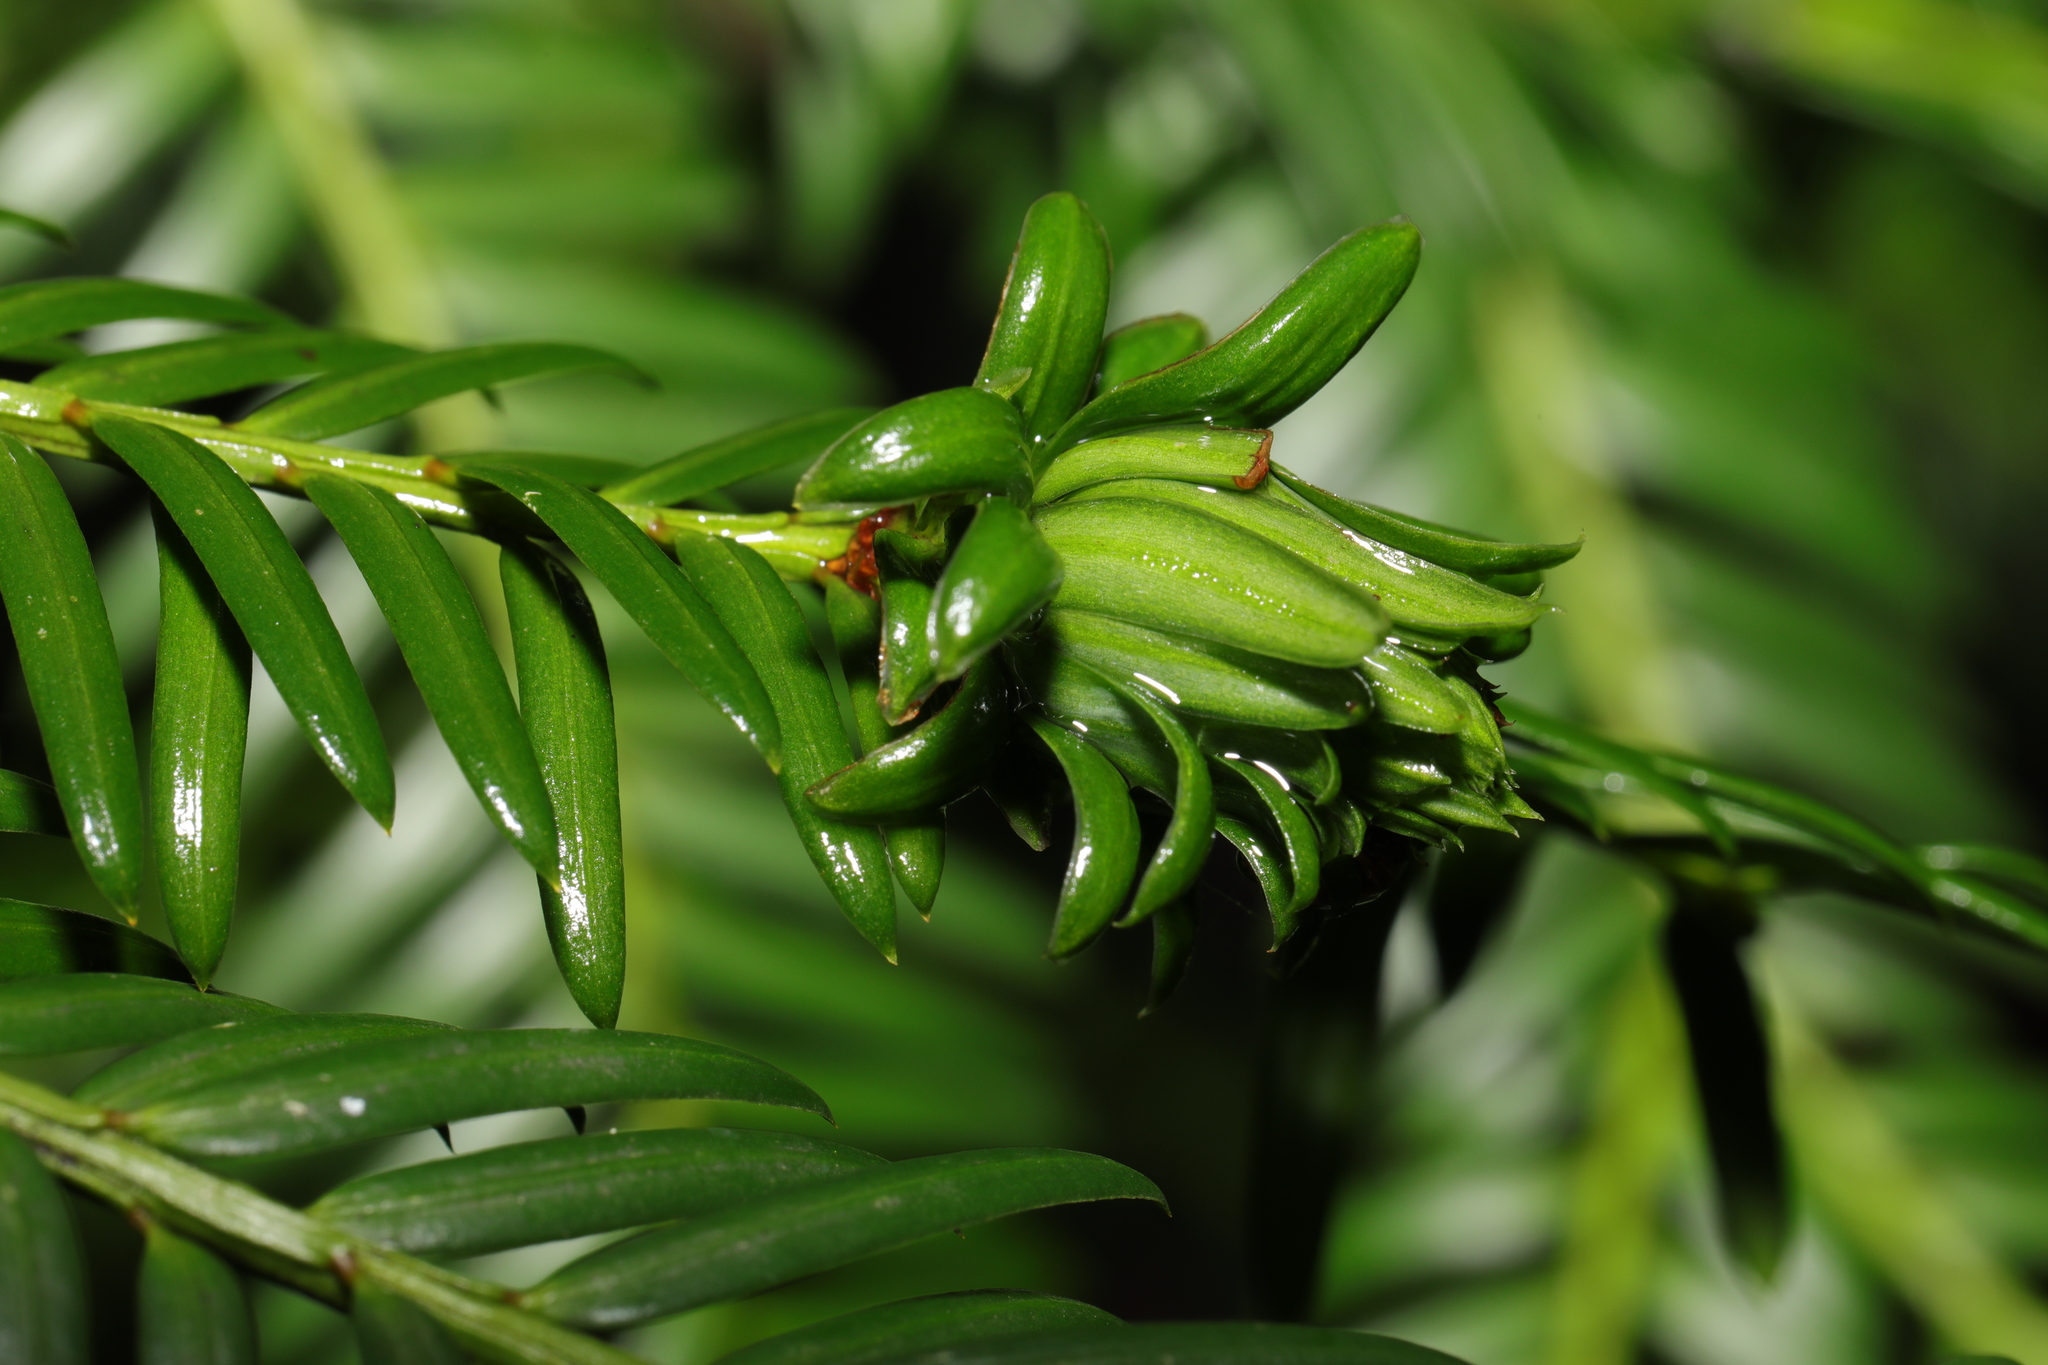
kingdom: Animalia
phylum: Arthropoda
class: Insecta
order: Diptera
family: Cecidomyiidae
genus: Taxomyia
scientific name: Taxomyia taxi
